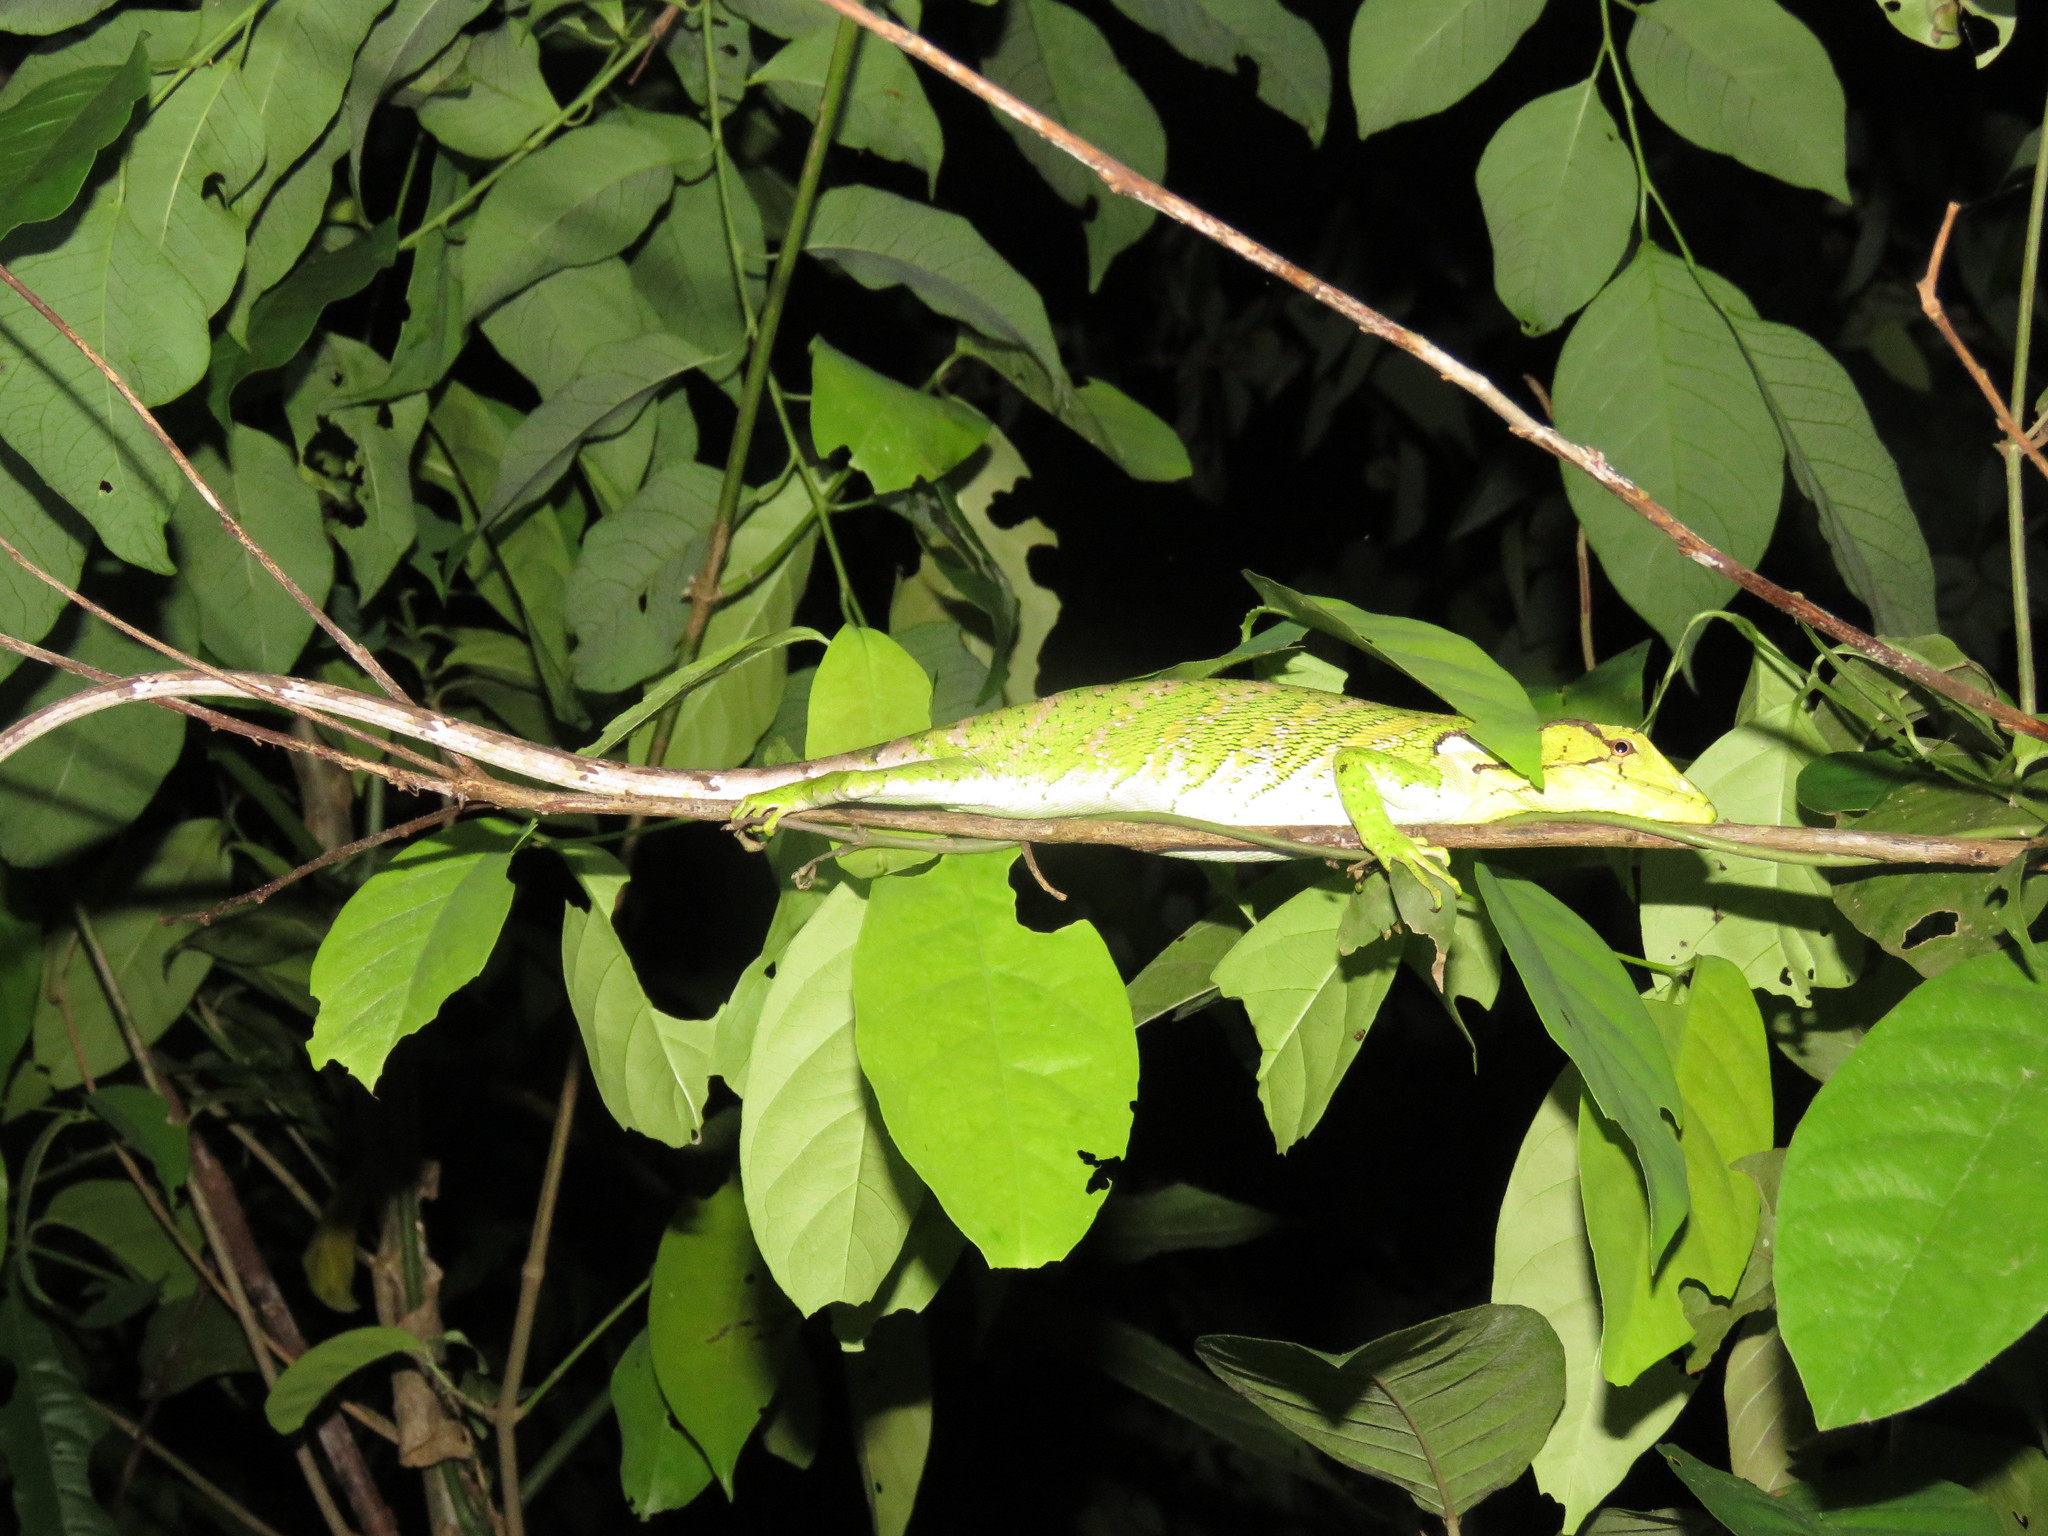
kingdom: Animalia
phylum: Chordata
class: Squamata
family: Polychrotidae
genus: Polychrus
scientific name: Polychrus liogaster
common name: Boulenger's bush anole
